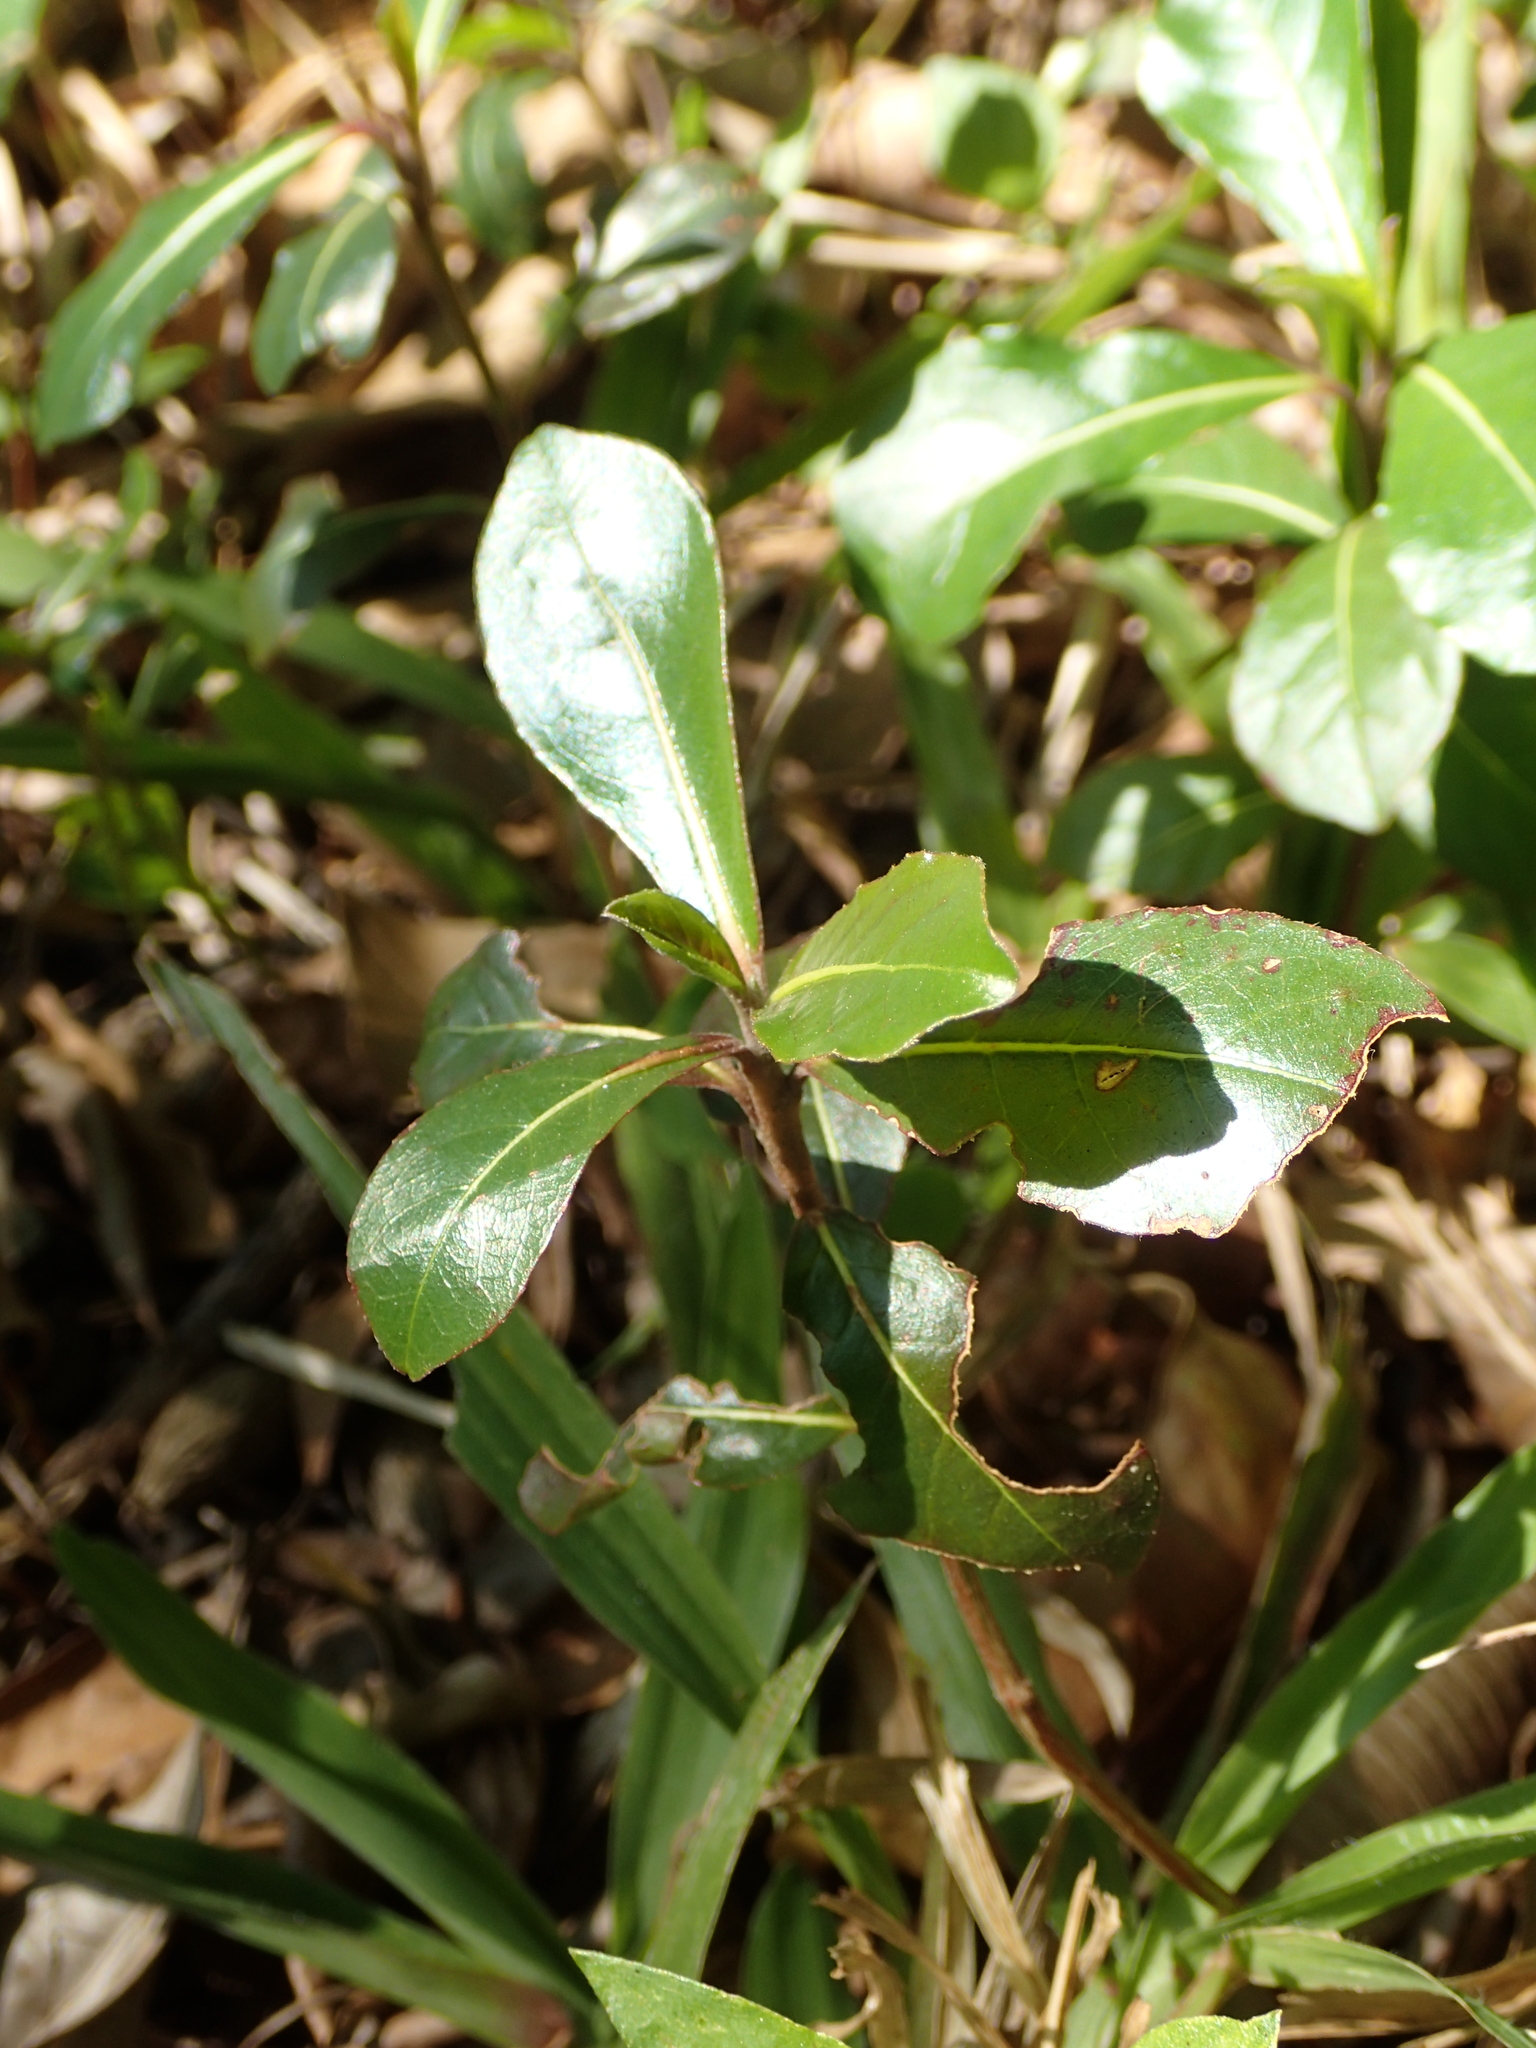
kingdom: Plantae
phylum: Tracheophyta
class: Magnoliopsida
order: Myrtales
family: Combretaceae
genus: Terminalia
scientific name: Terminalia neotaliala
